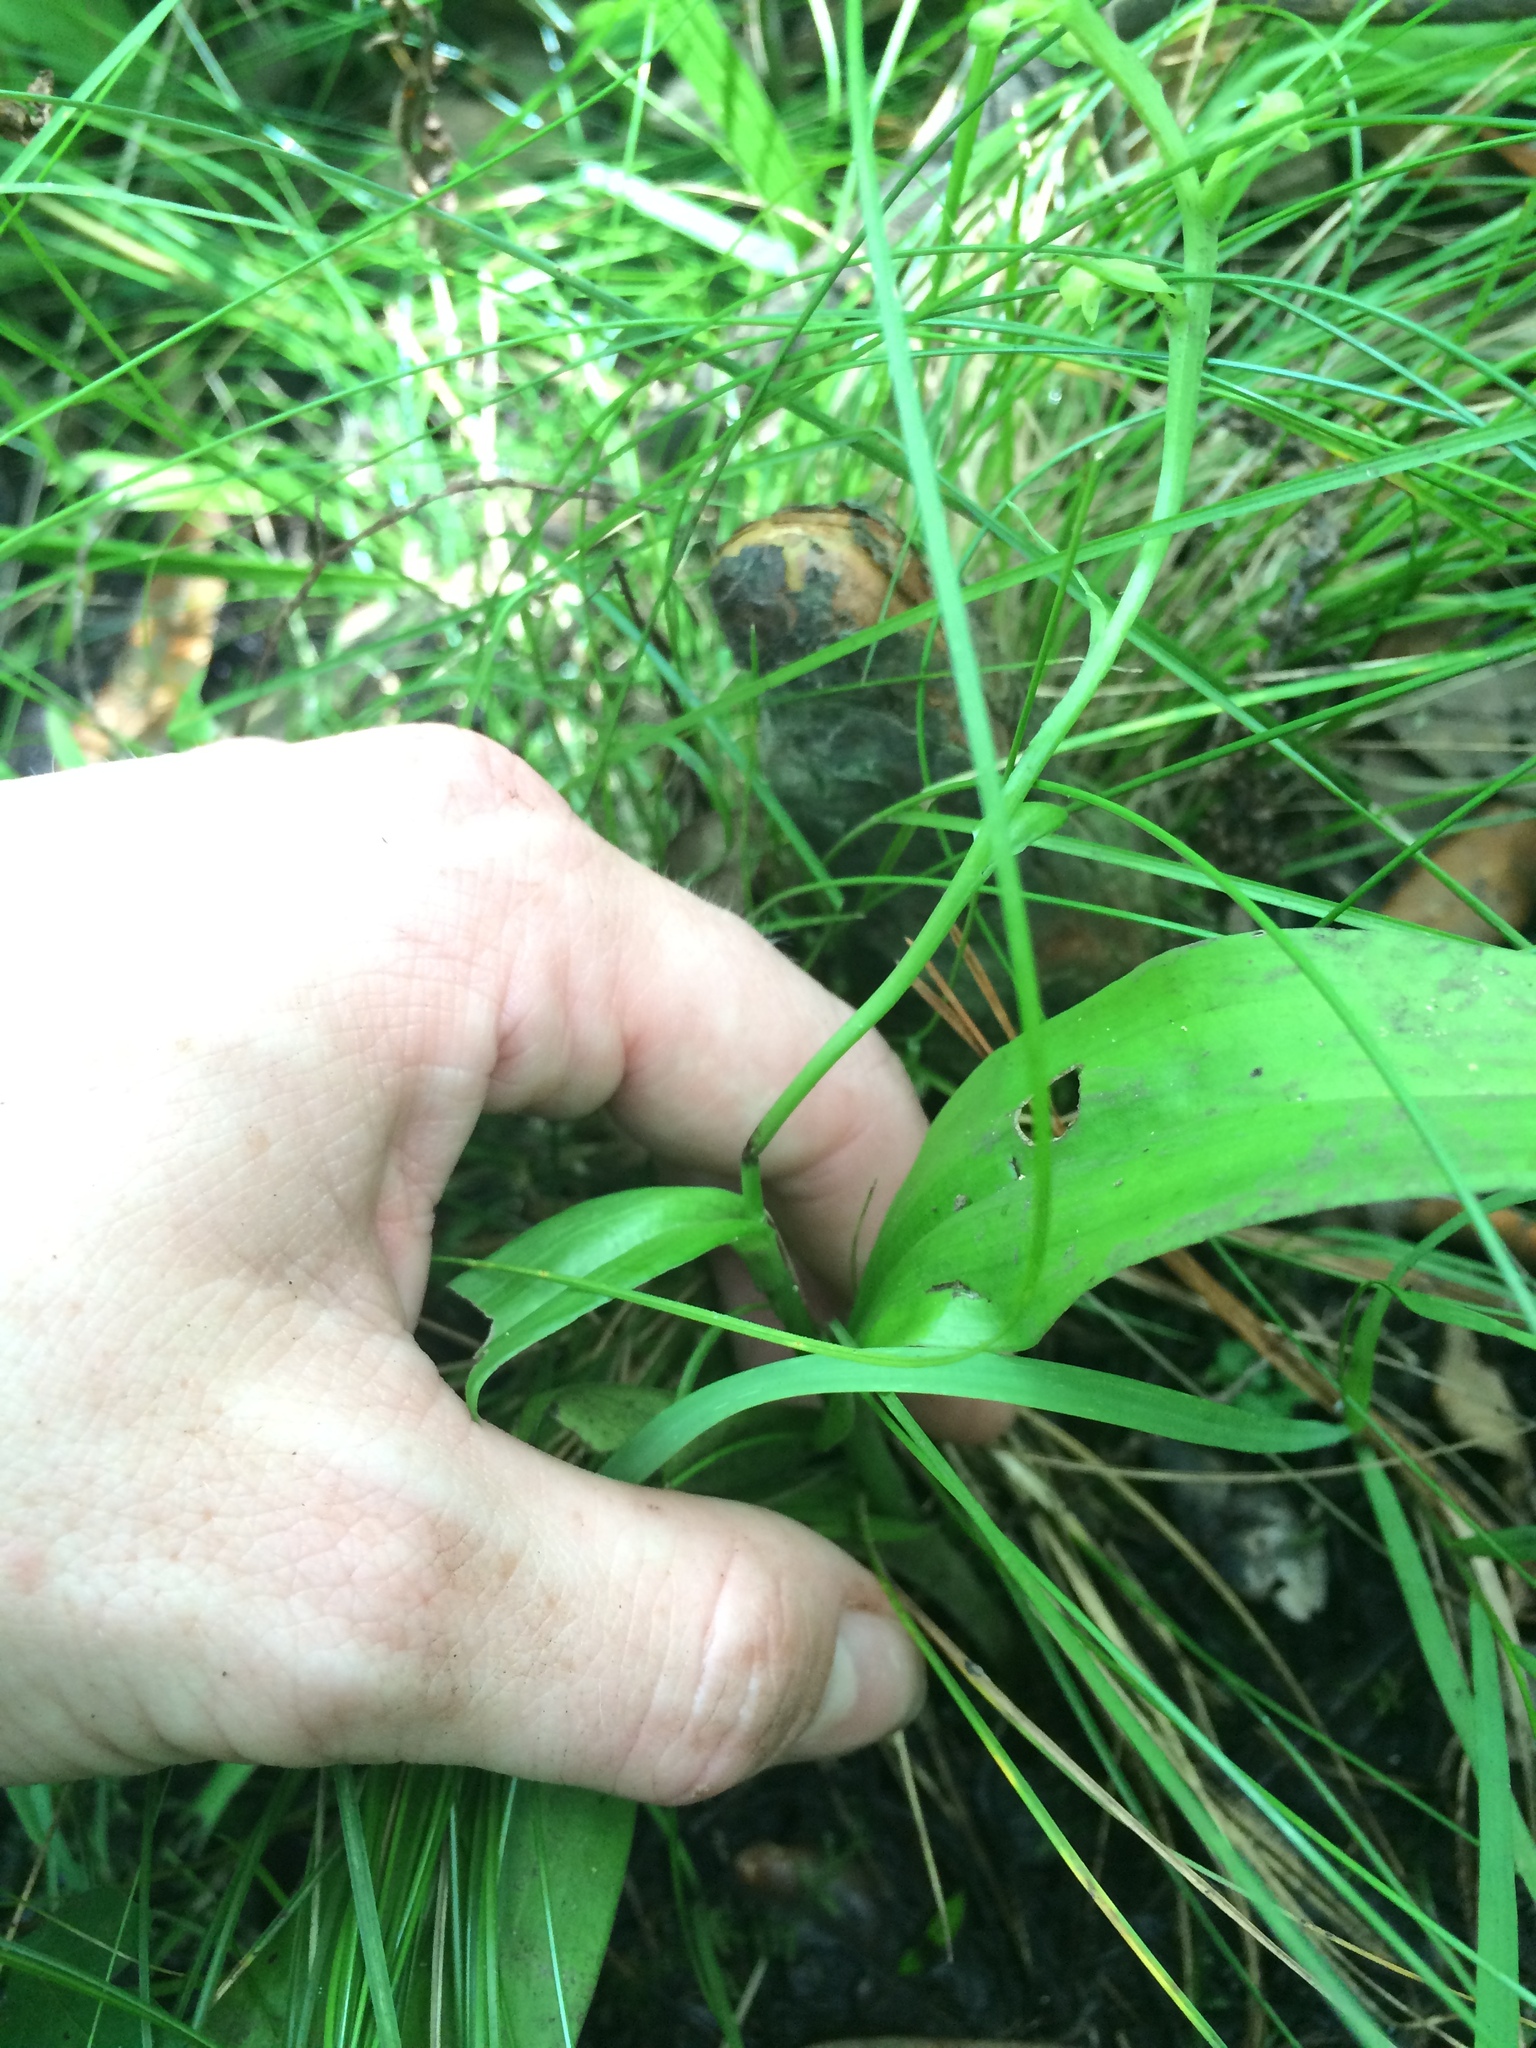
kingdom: Plantae
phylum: Tracheophyta
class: Liliopsida
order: Asparagales
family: Orchidaceae
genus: Platanthera
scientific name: Platanthera flava
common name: Gypsy-spikes
